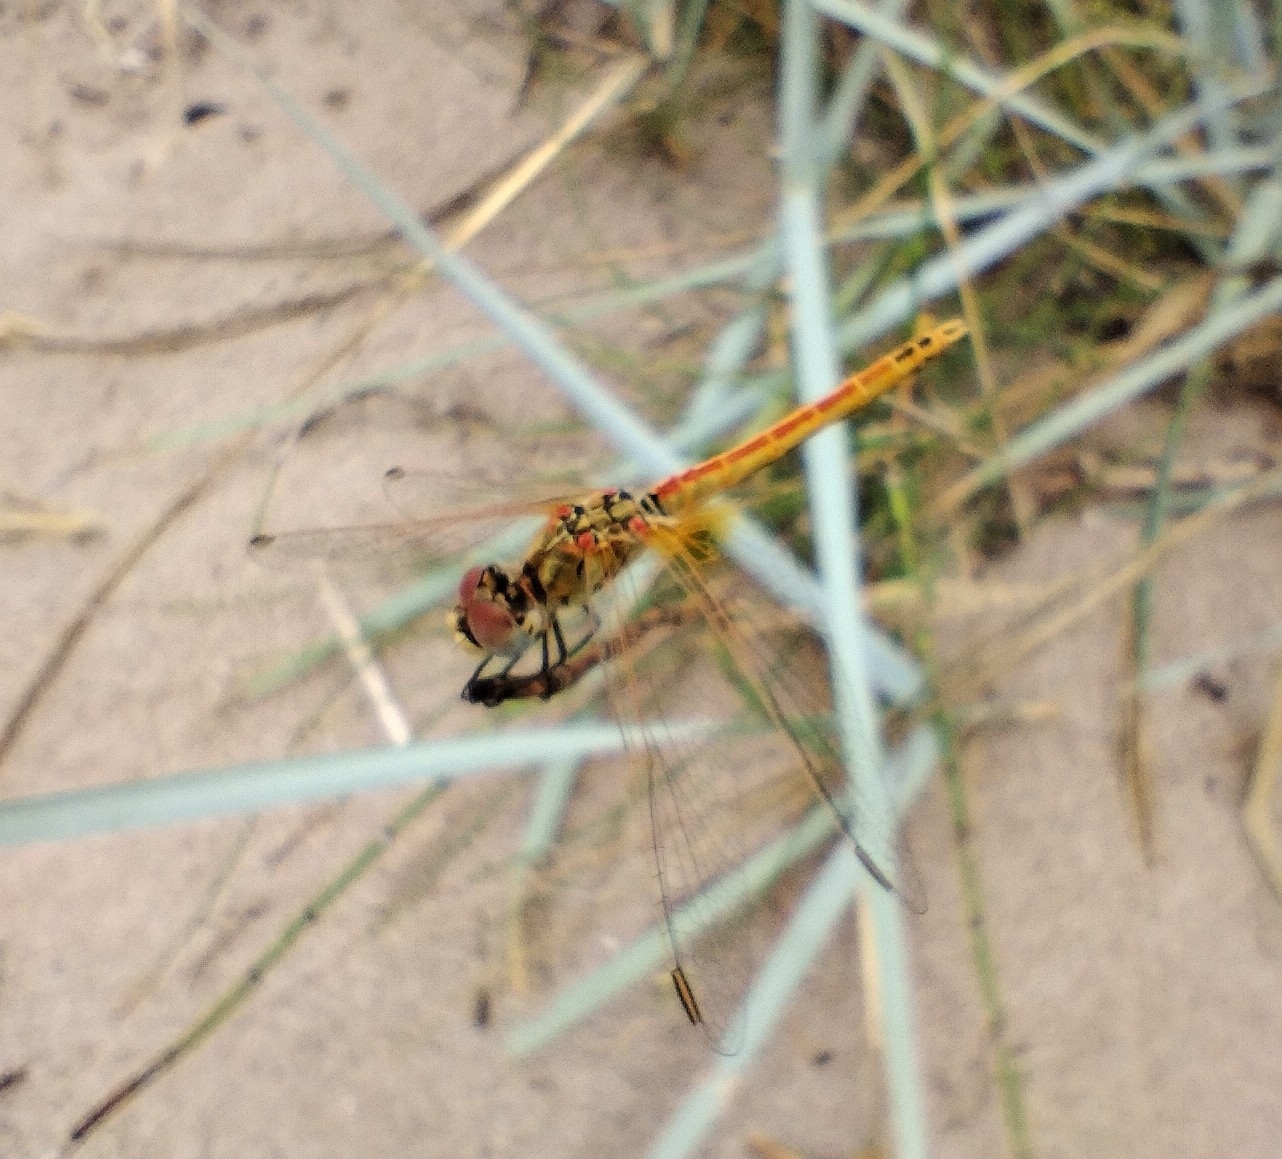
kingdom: Animalia
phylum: Arthropoda
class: Insecta
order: Odonata
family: Libellulidae
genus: Sympetrum
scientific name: Sympetrum fonscolombii
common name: Red-veined darter
